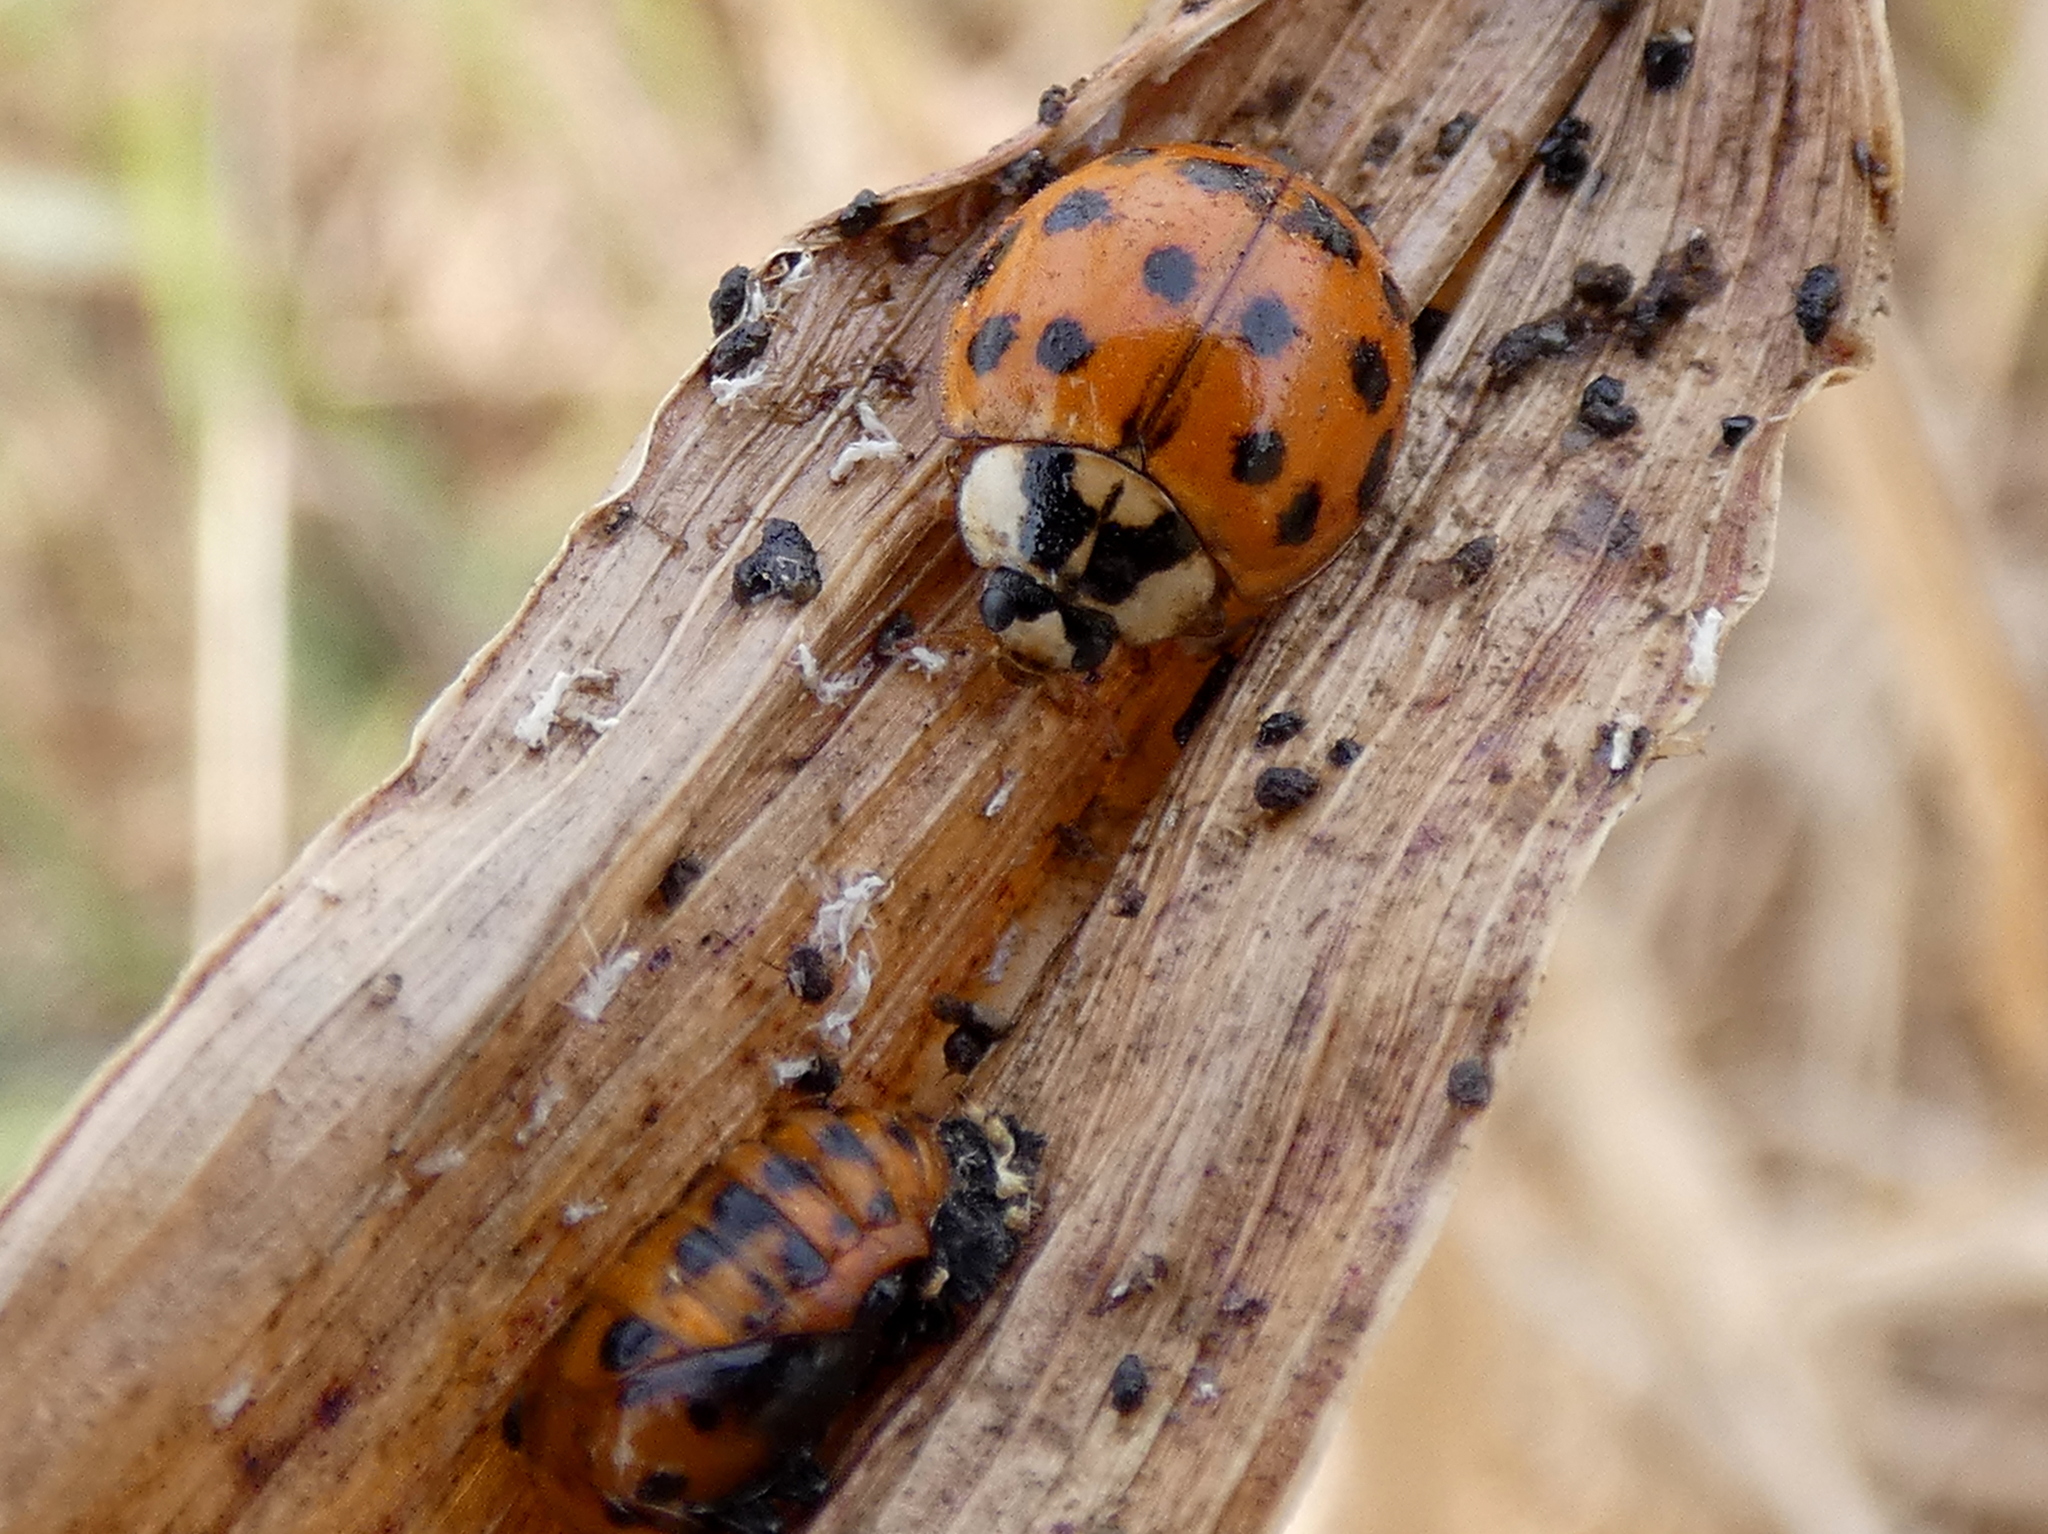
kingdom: Animalia
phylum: Arthropoda
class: Insecta
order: Coleoptera
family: Coccinellidae
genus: Harmonia
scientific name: Harmonia axyridis
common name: Harlequin ladybird
